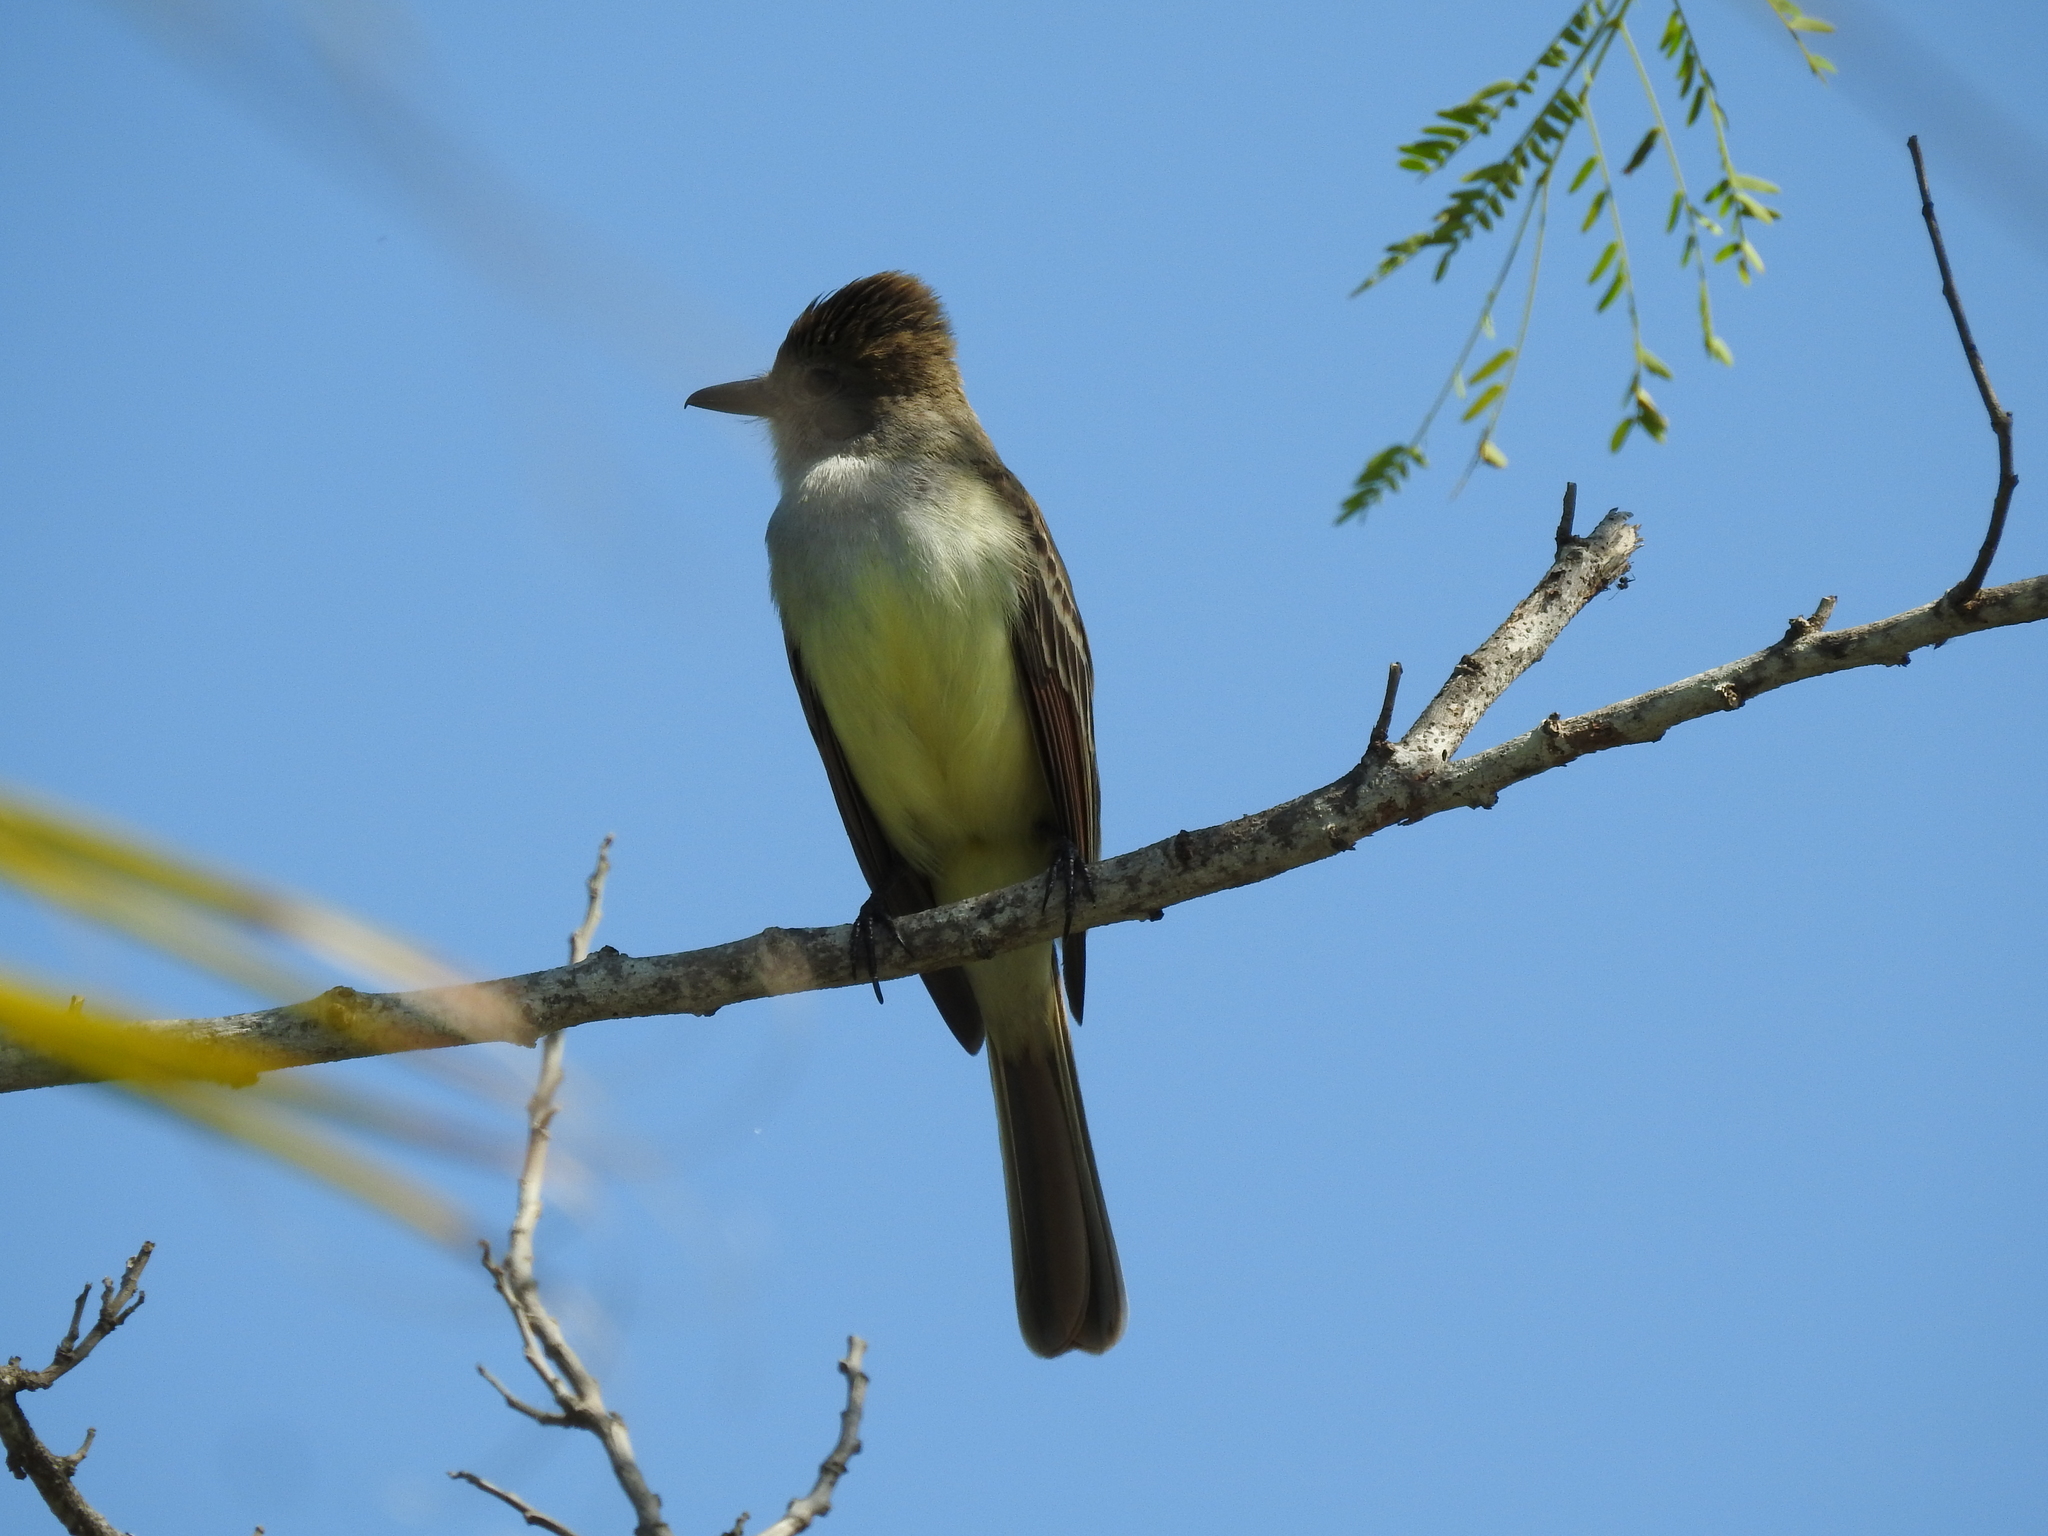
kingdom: Animalia
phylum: Chordata
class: Aves
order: Passeriformes
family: Tyrannidae
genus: Myiarchus
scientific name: Myiarchus tyrannulus
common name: Brown-crested flycatcher
